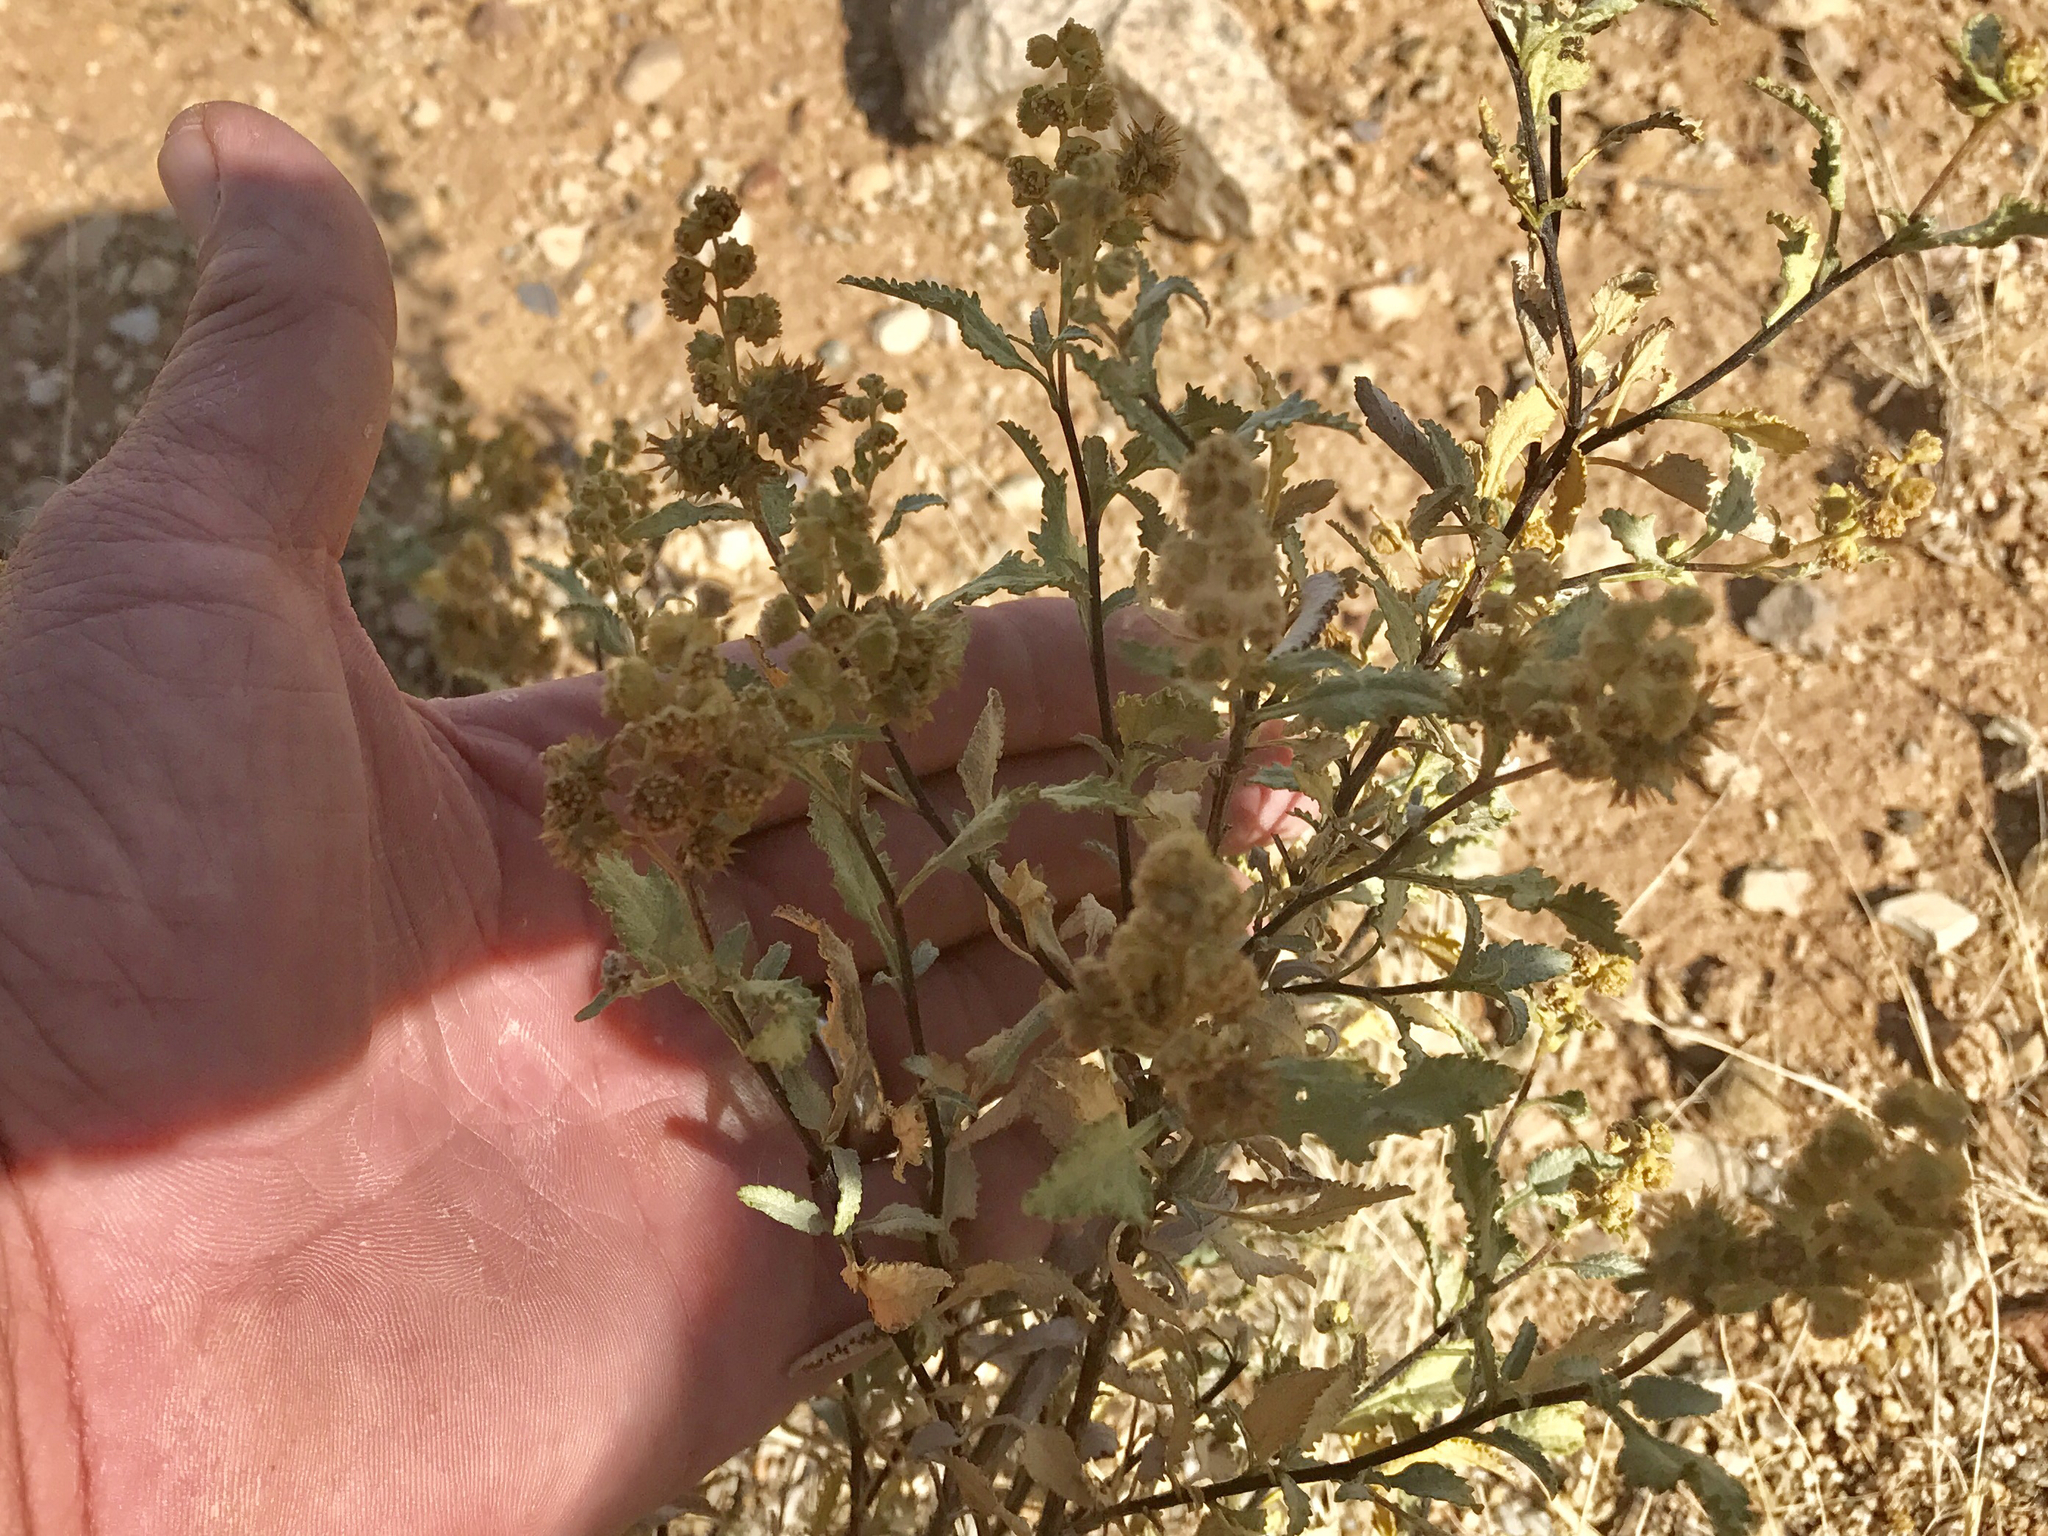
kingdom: Plantae
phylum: Tracheophyta
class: Magnoliopsida
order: Asterales
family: Asteraceae
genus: Ambrosia
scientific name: Ambrosia deltoidea
